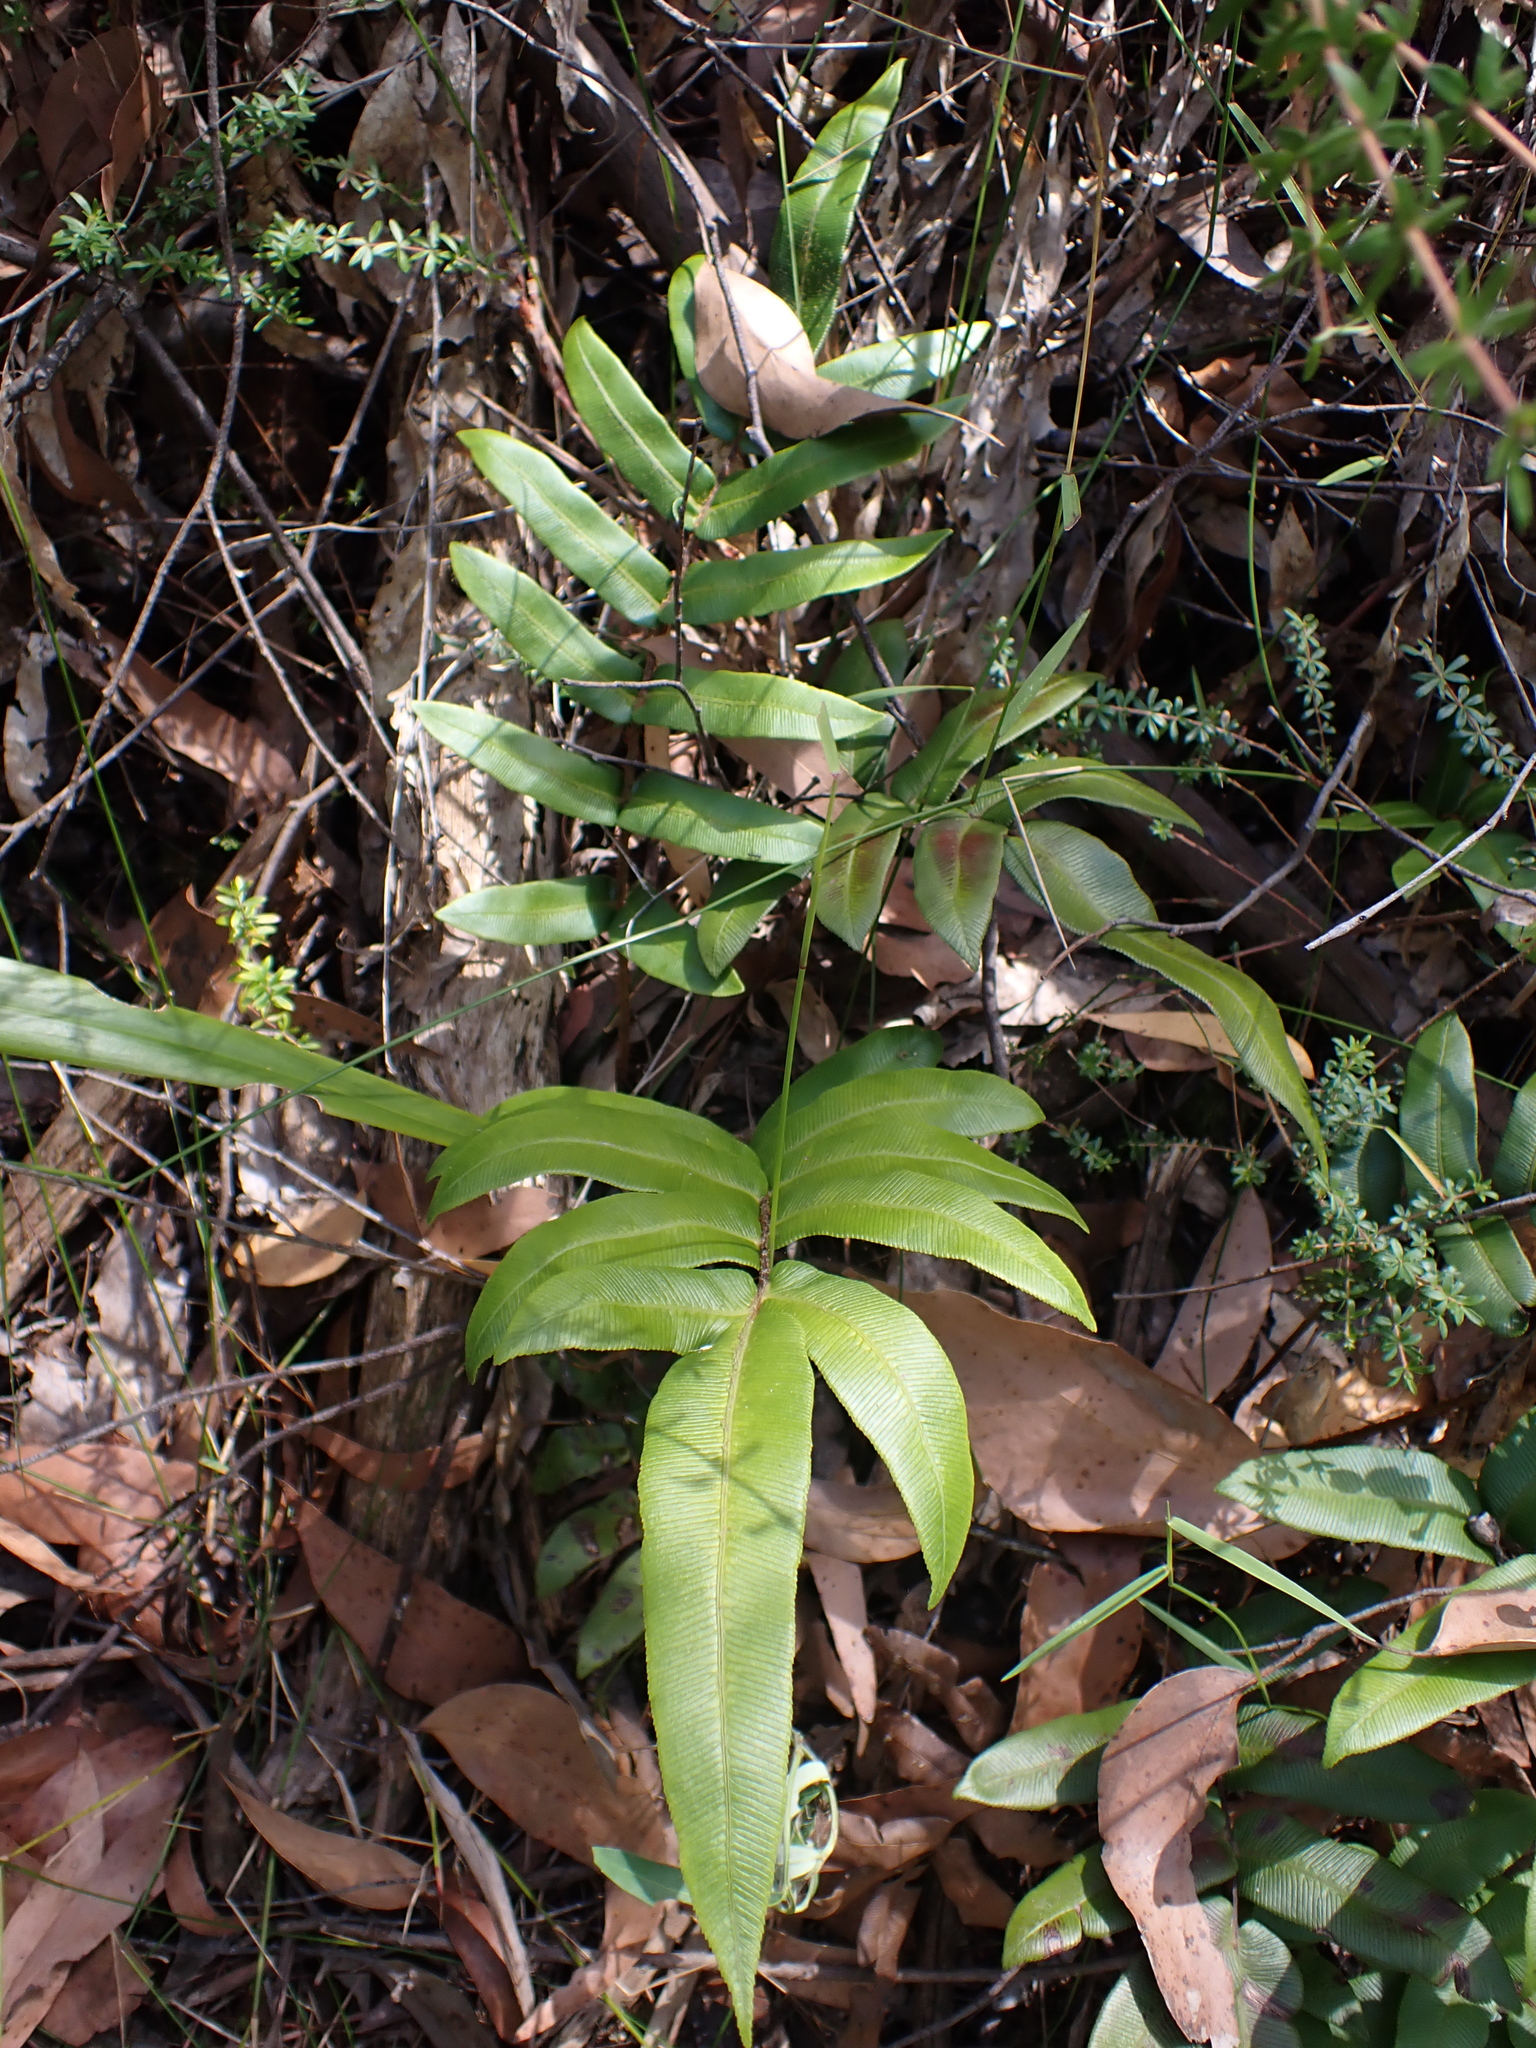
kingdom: Plantae
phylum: Tracheophyta
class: Polypodiopsida
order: Polypodiales
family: Blechnaceae
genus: Parablechnum
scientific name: Parablechnum wattsii
